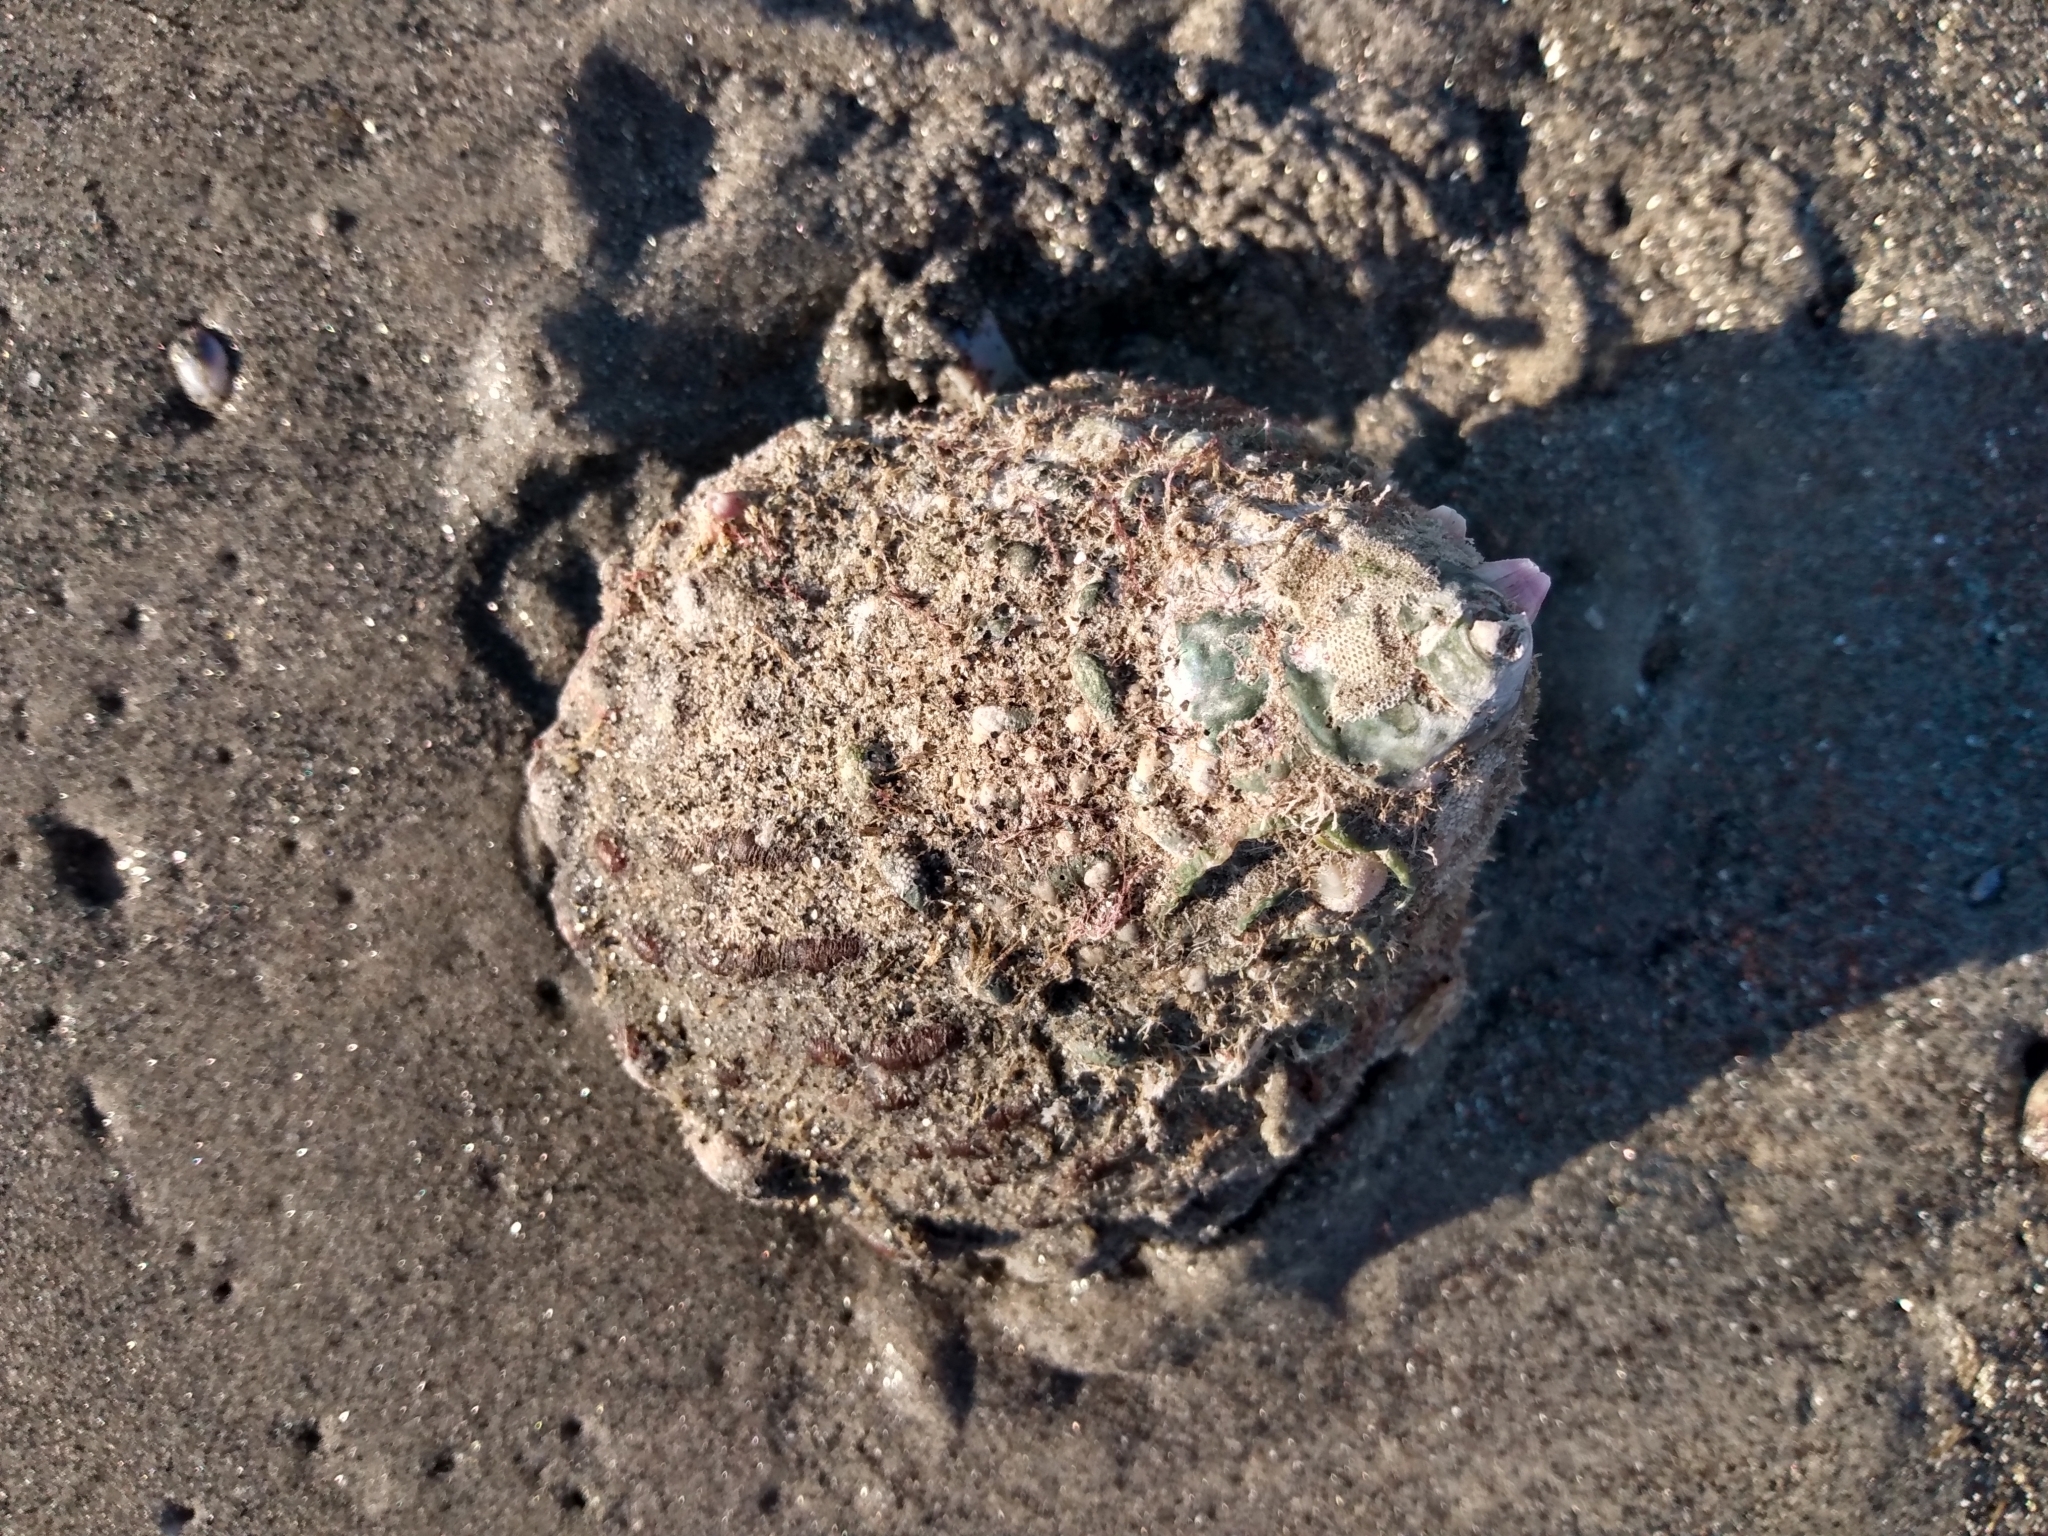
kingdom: Animalia
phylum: Mollusca
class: Gastropoda
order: Trochida
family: Turbinidae
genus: Megastraea
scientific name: Megastraea undosa
